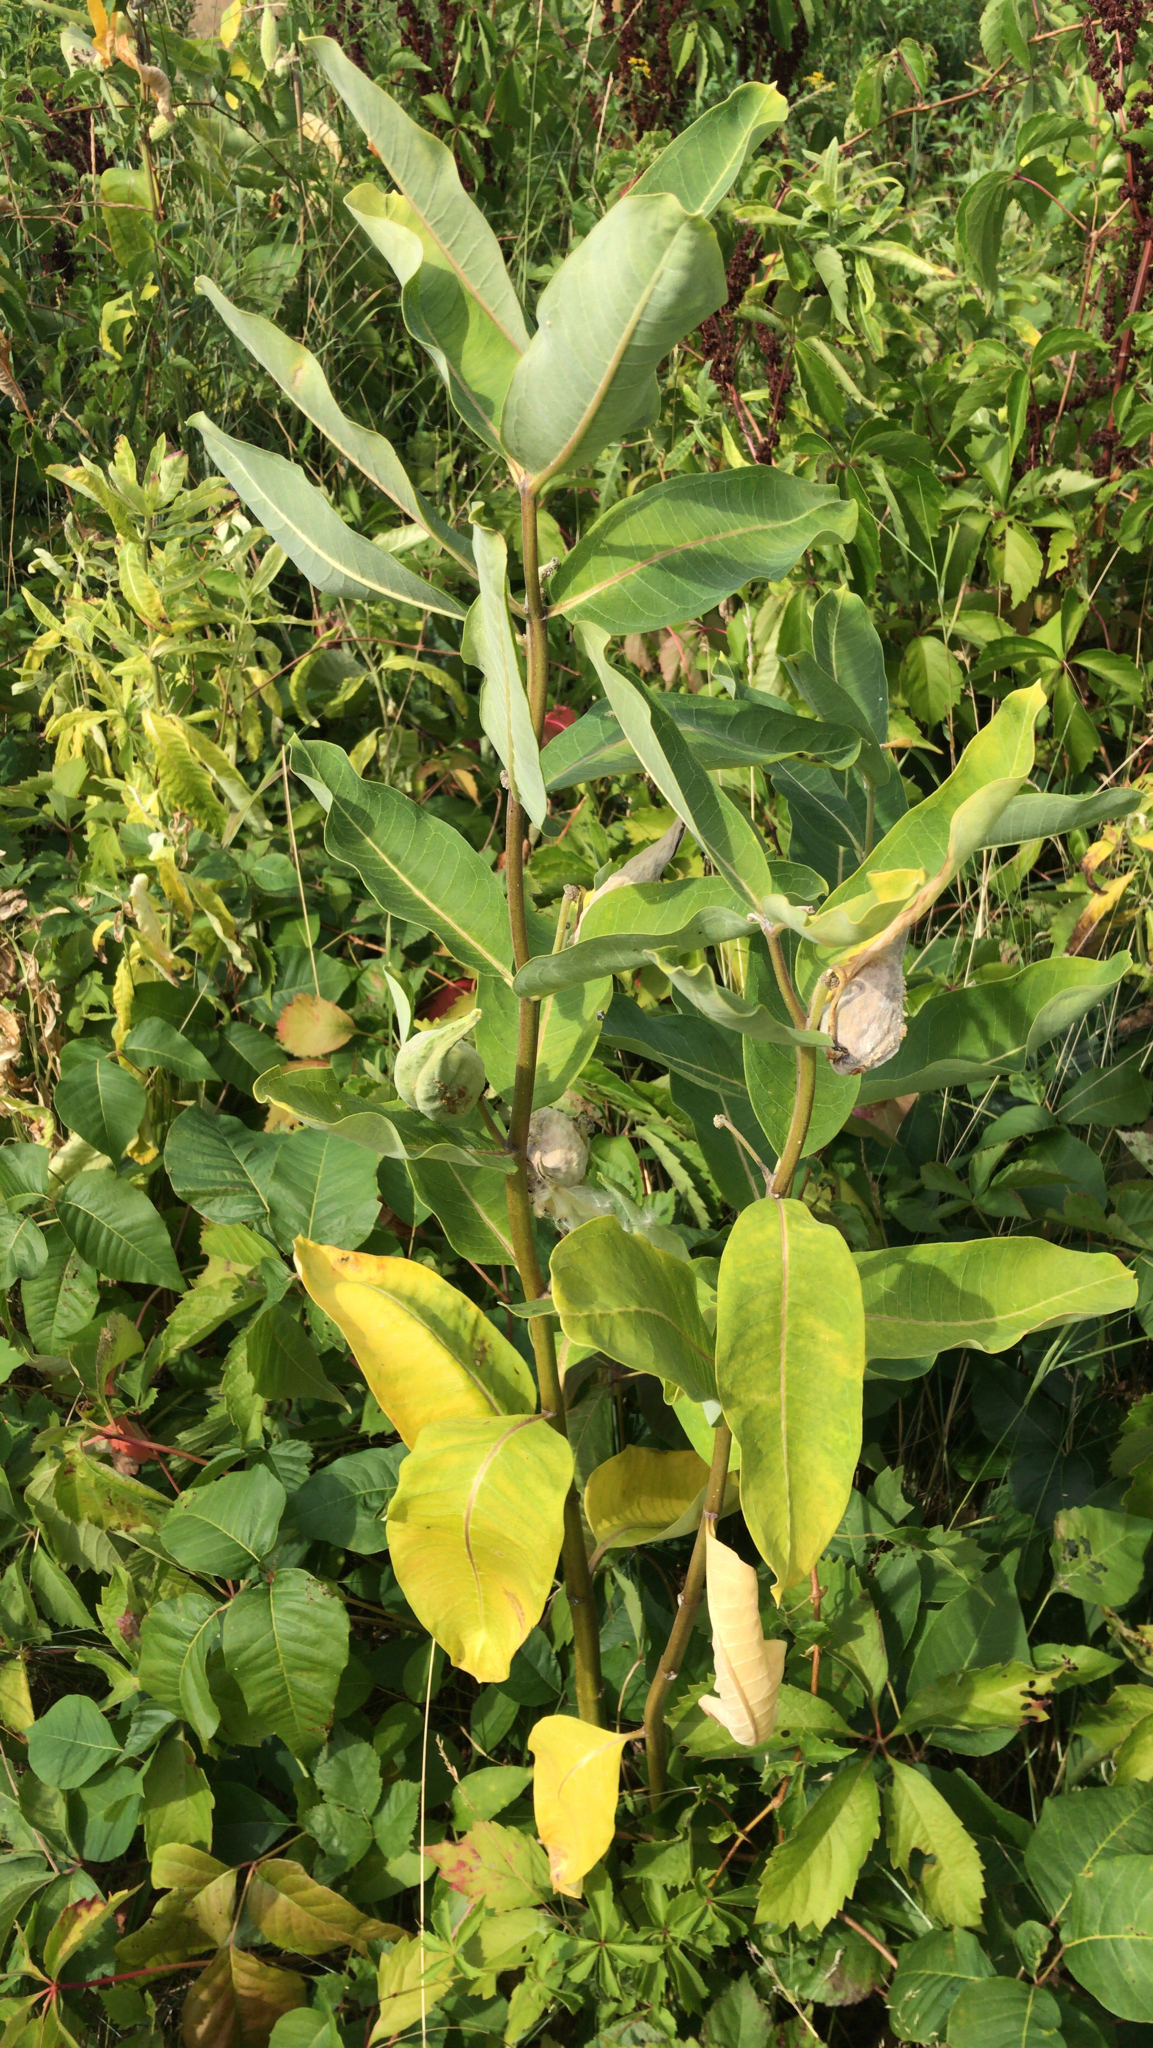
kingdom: Plantae
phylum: Tracheophyta
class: Magnoliopsida
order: Gentianales
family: Apocynaceae
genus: Asclepias
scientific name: Asclepias syriaca
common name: Common milkweed
